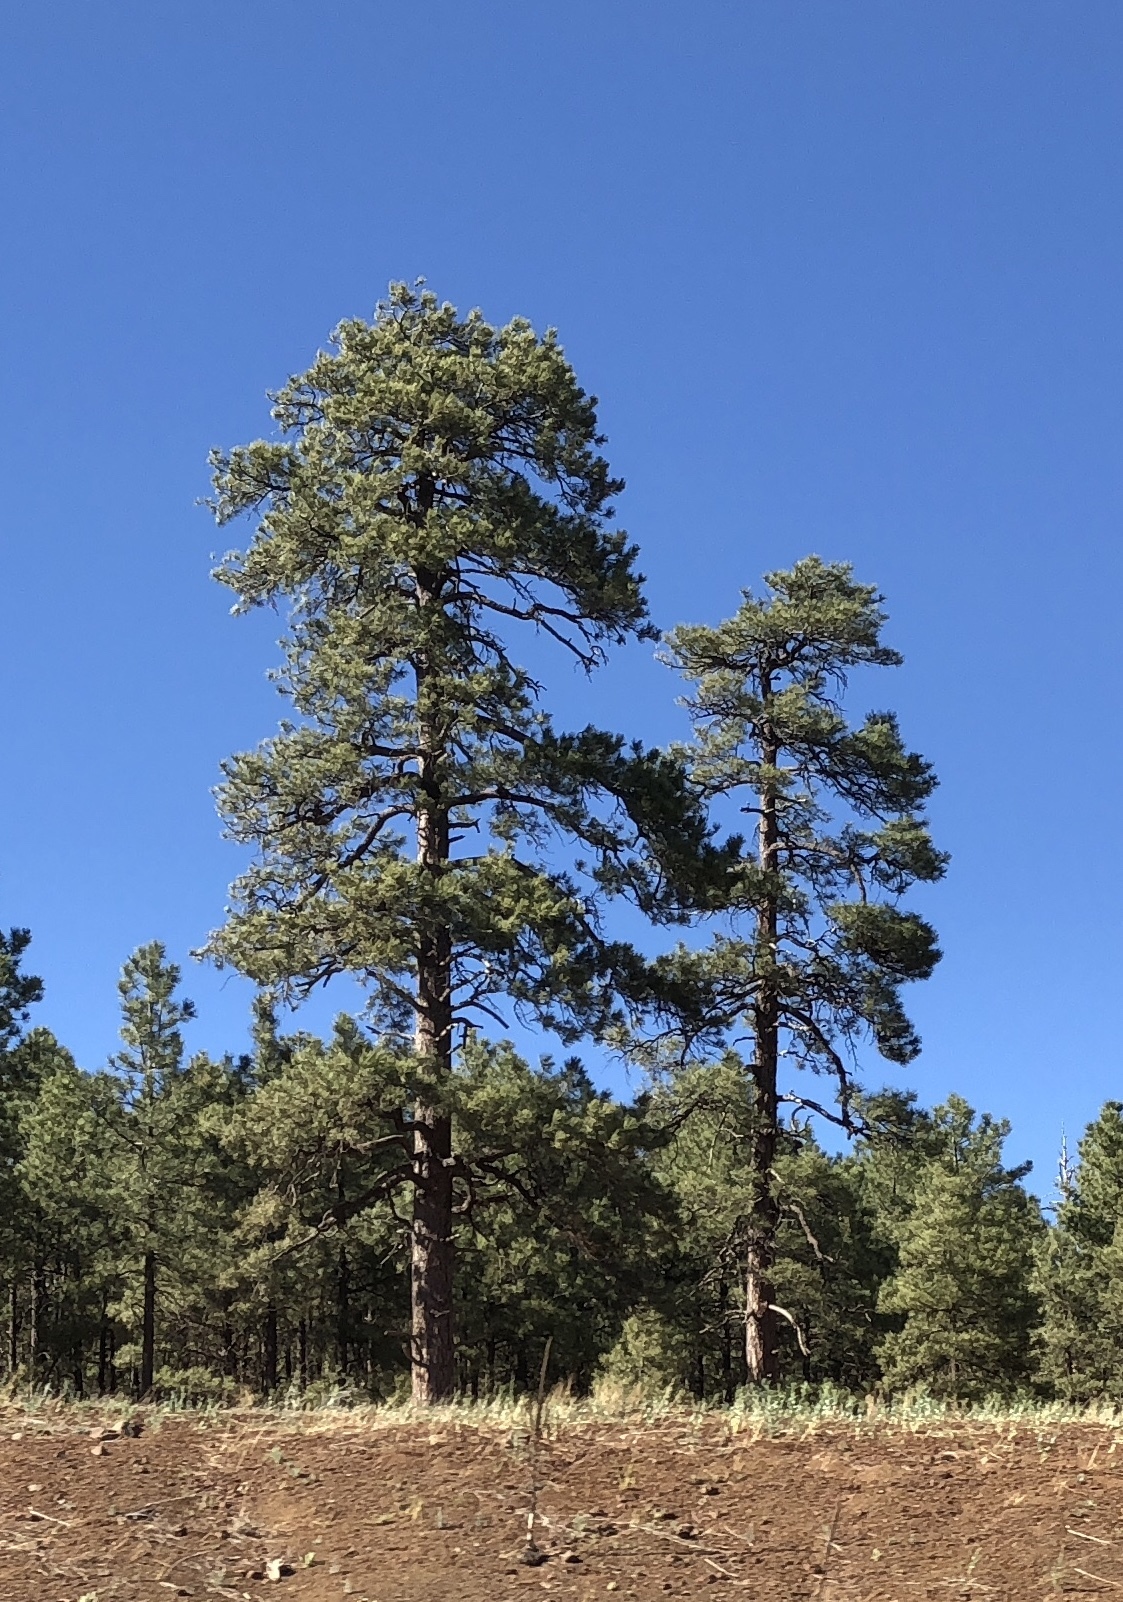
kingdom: Plantae
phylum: Tracheophyta
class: Pinopsida
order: Pinales
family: Pinaceae
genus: Pinus
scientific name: Pinus ponderosa
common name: Western yellow-pine
